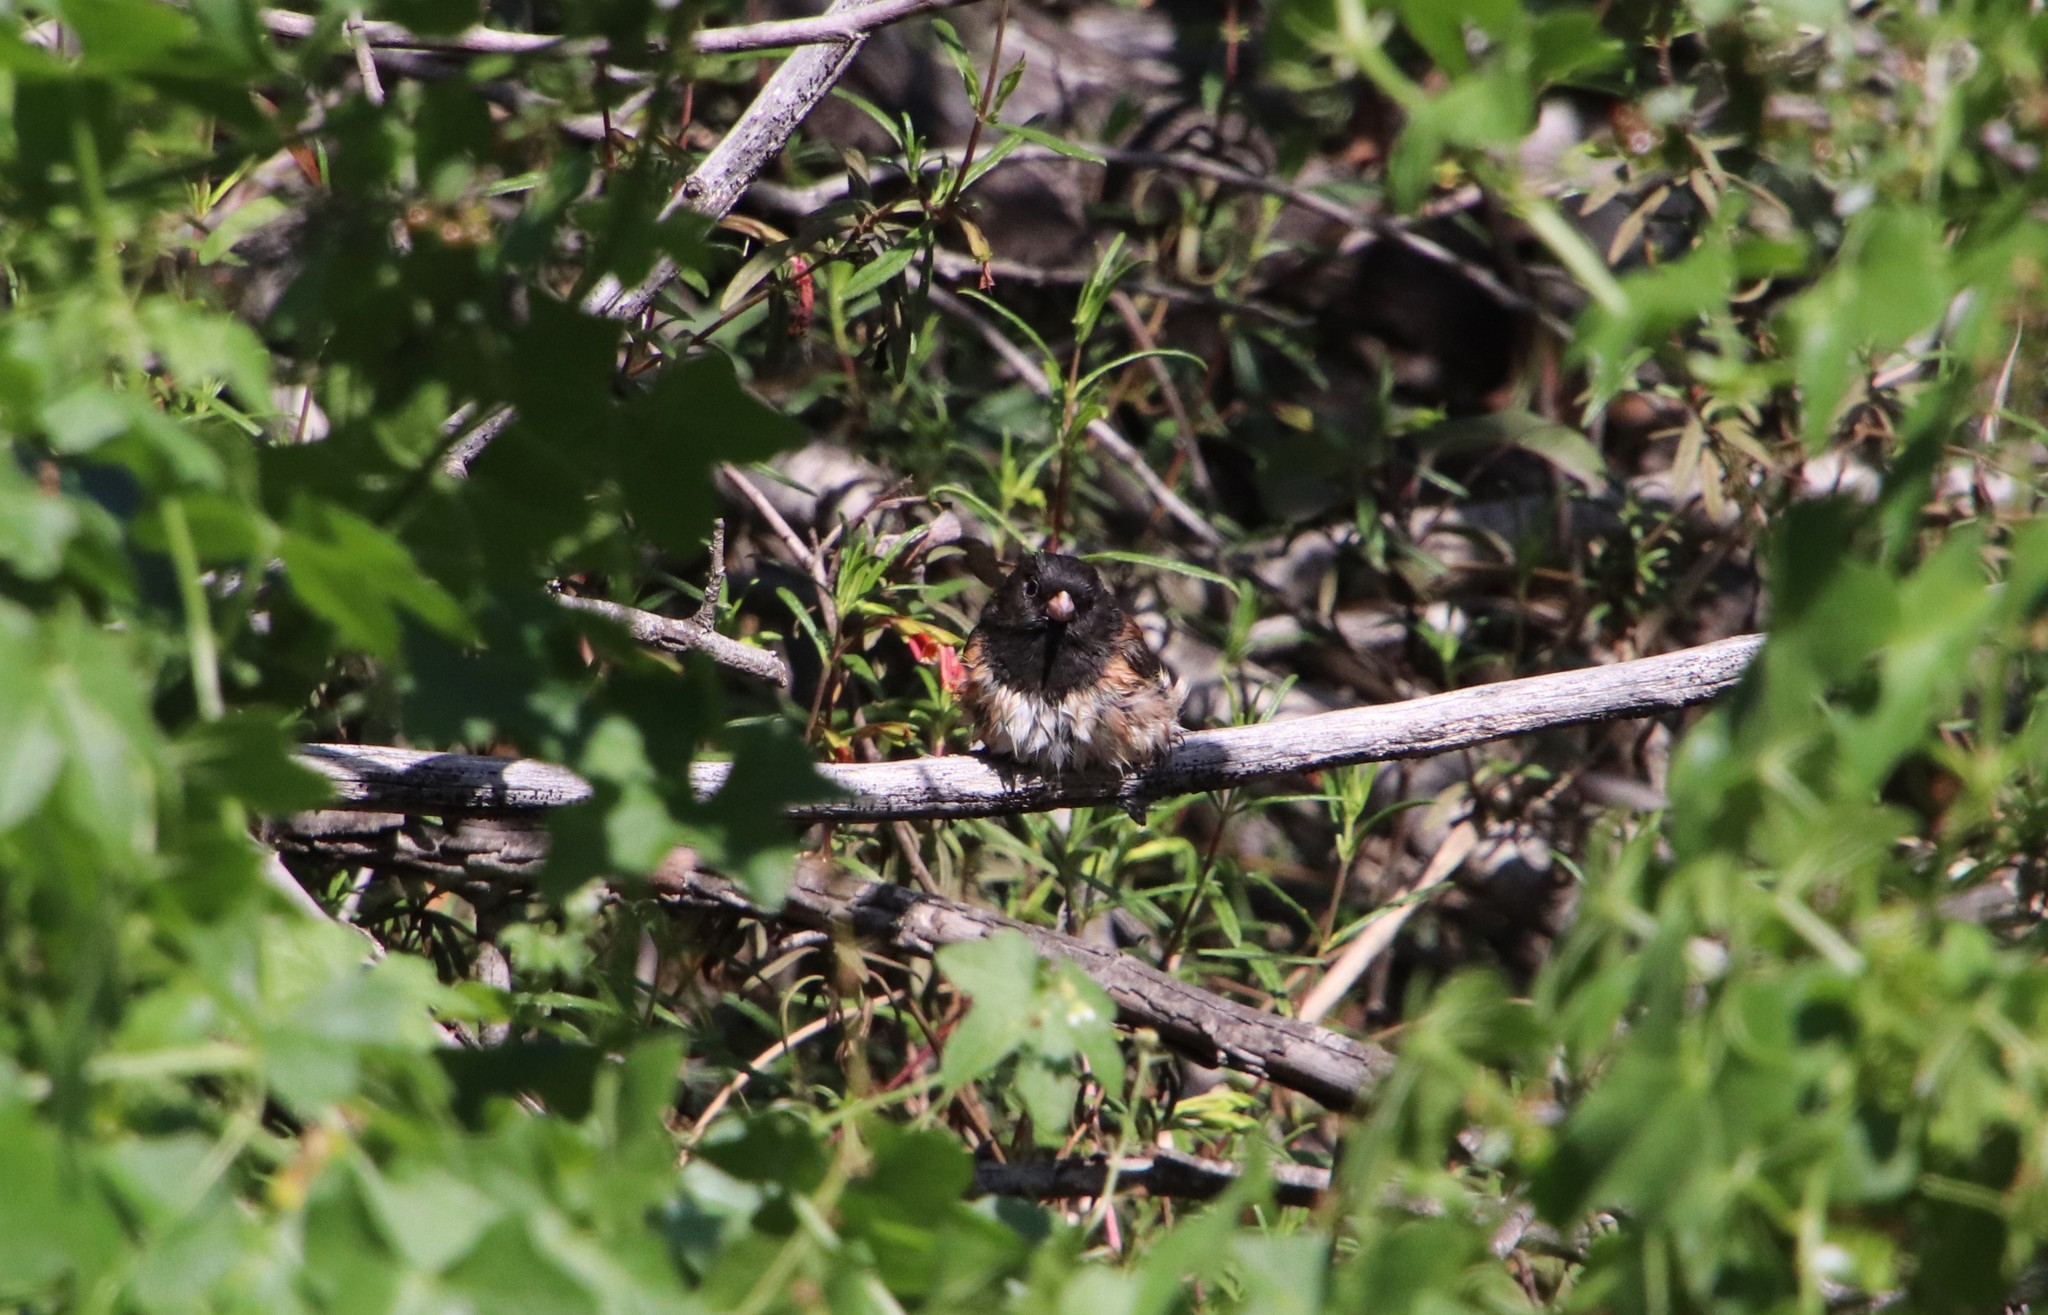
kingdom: Animalia
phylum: Chordata
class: Aves
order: Passeriformes
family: Passerellidae
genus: Junco
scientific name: Junco hyemalis
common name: Dark-eyed junco
